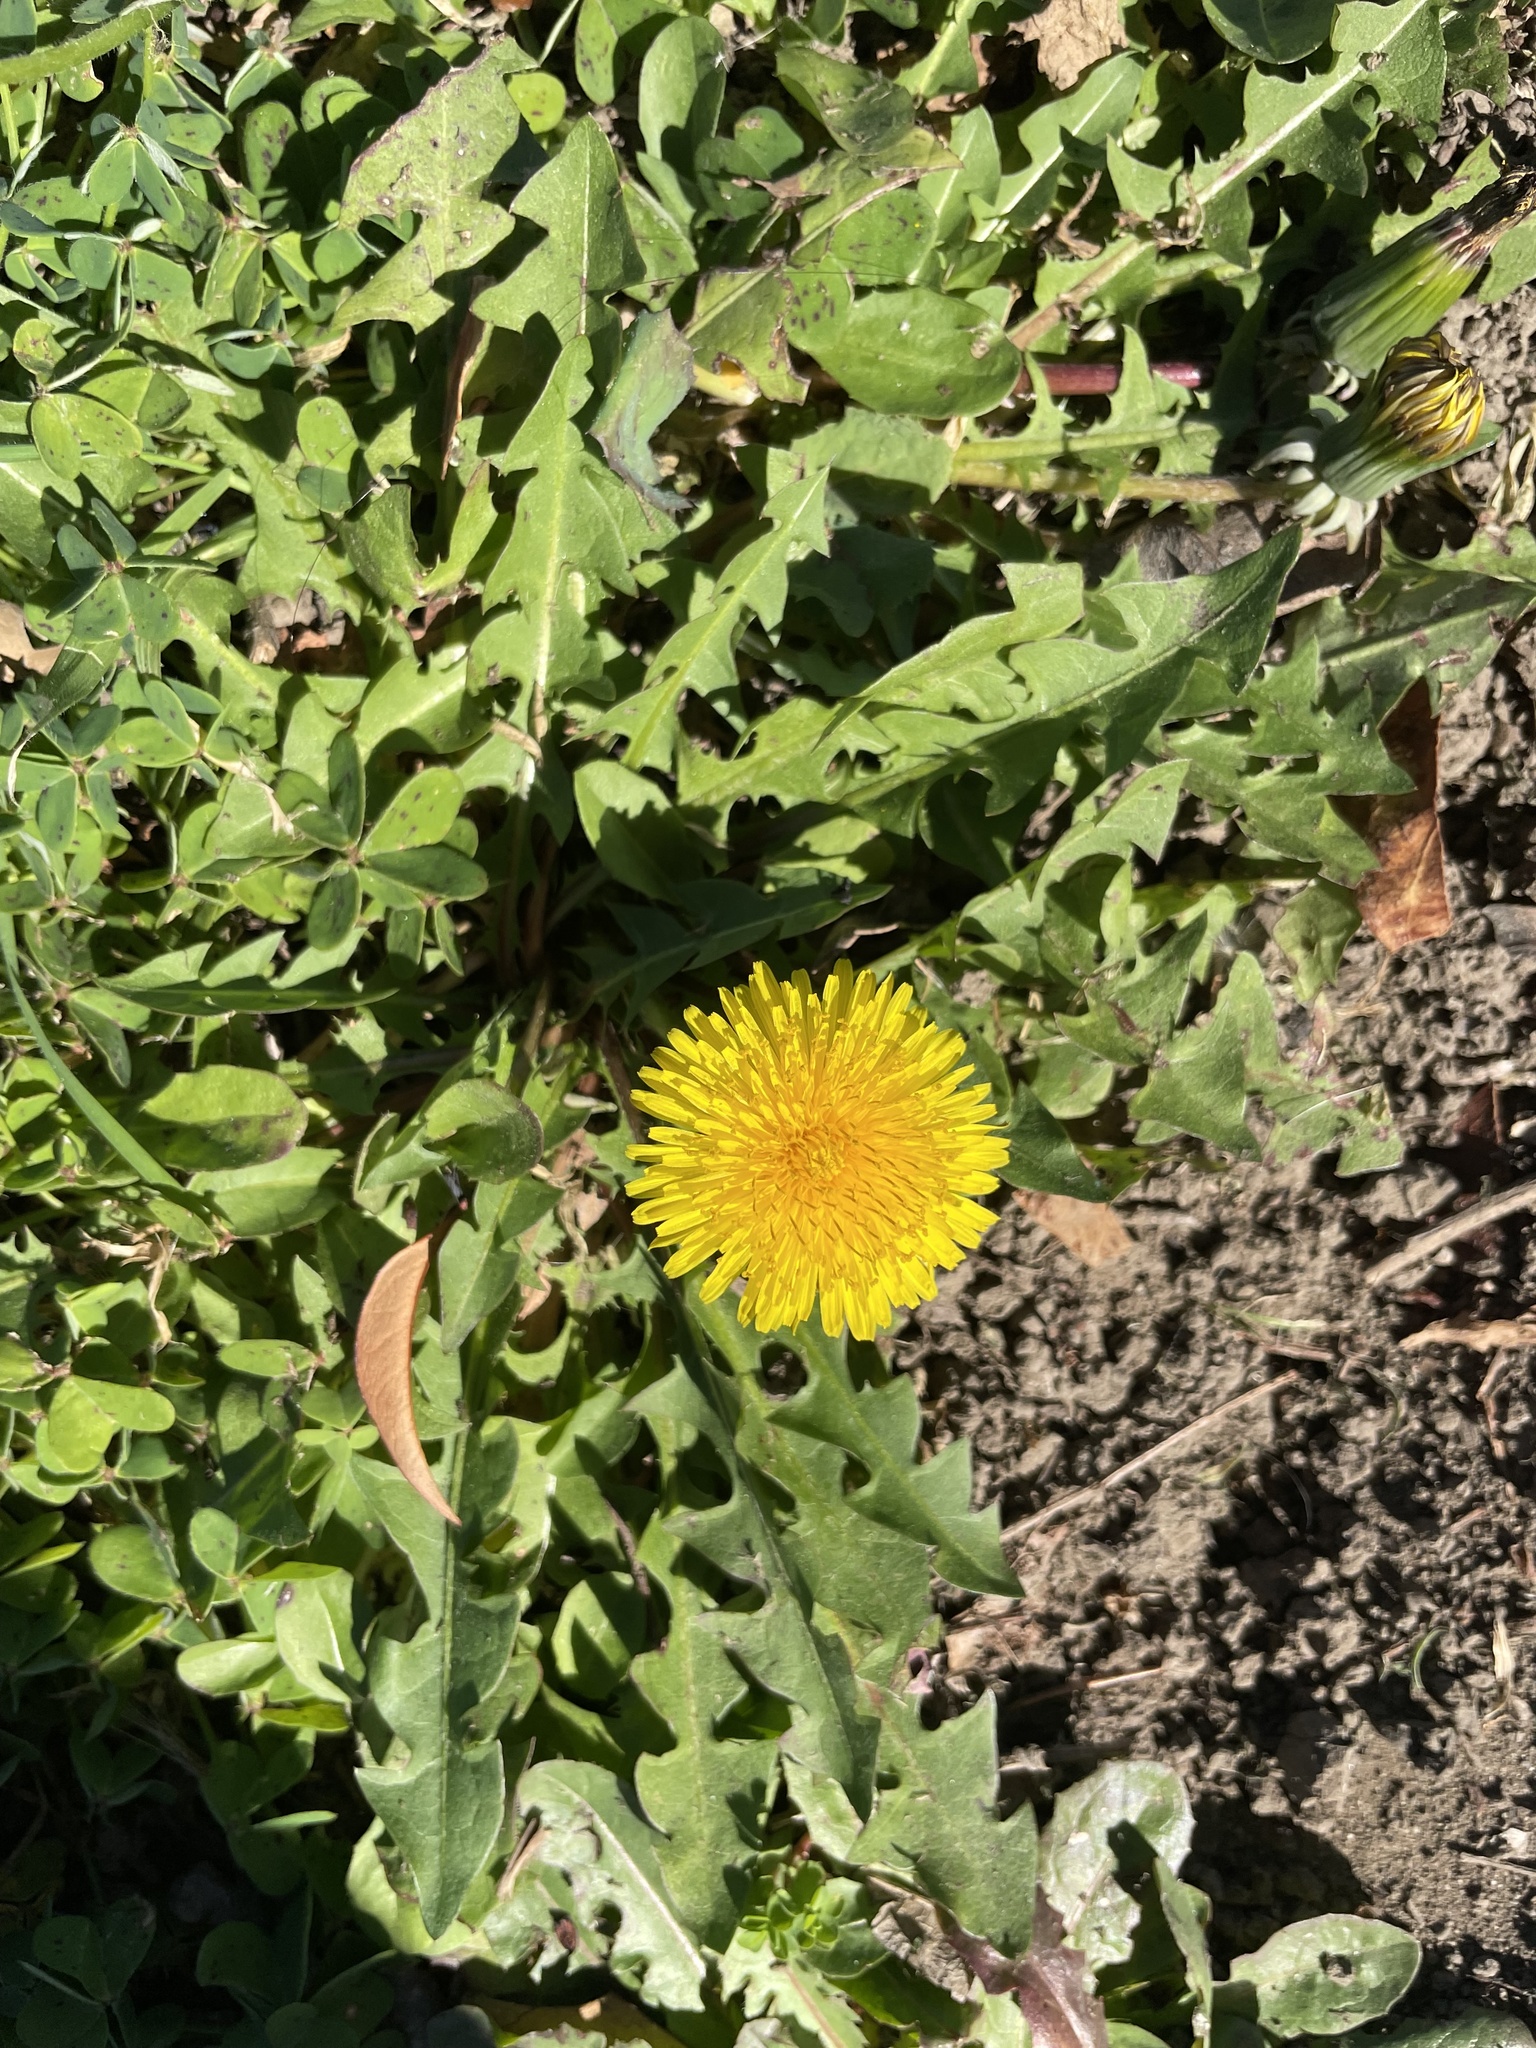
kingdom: Plantae
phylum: Tracheophyta
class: Magnoliopsida
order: Asterales
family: Asteraceae
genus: Taraxacum
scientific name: Taraxacum officinale
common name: Common dandelion
